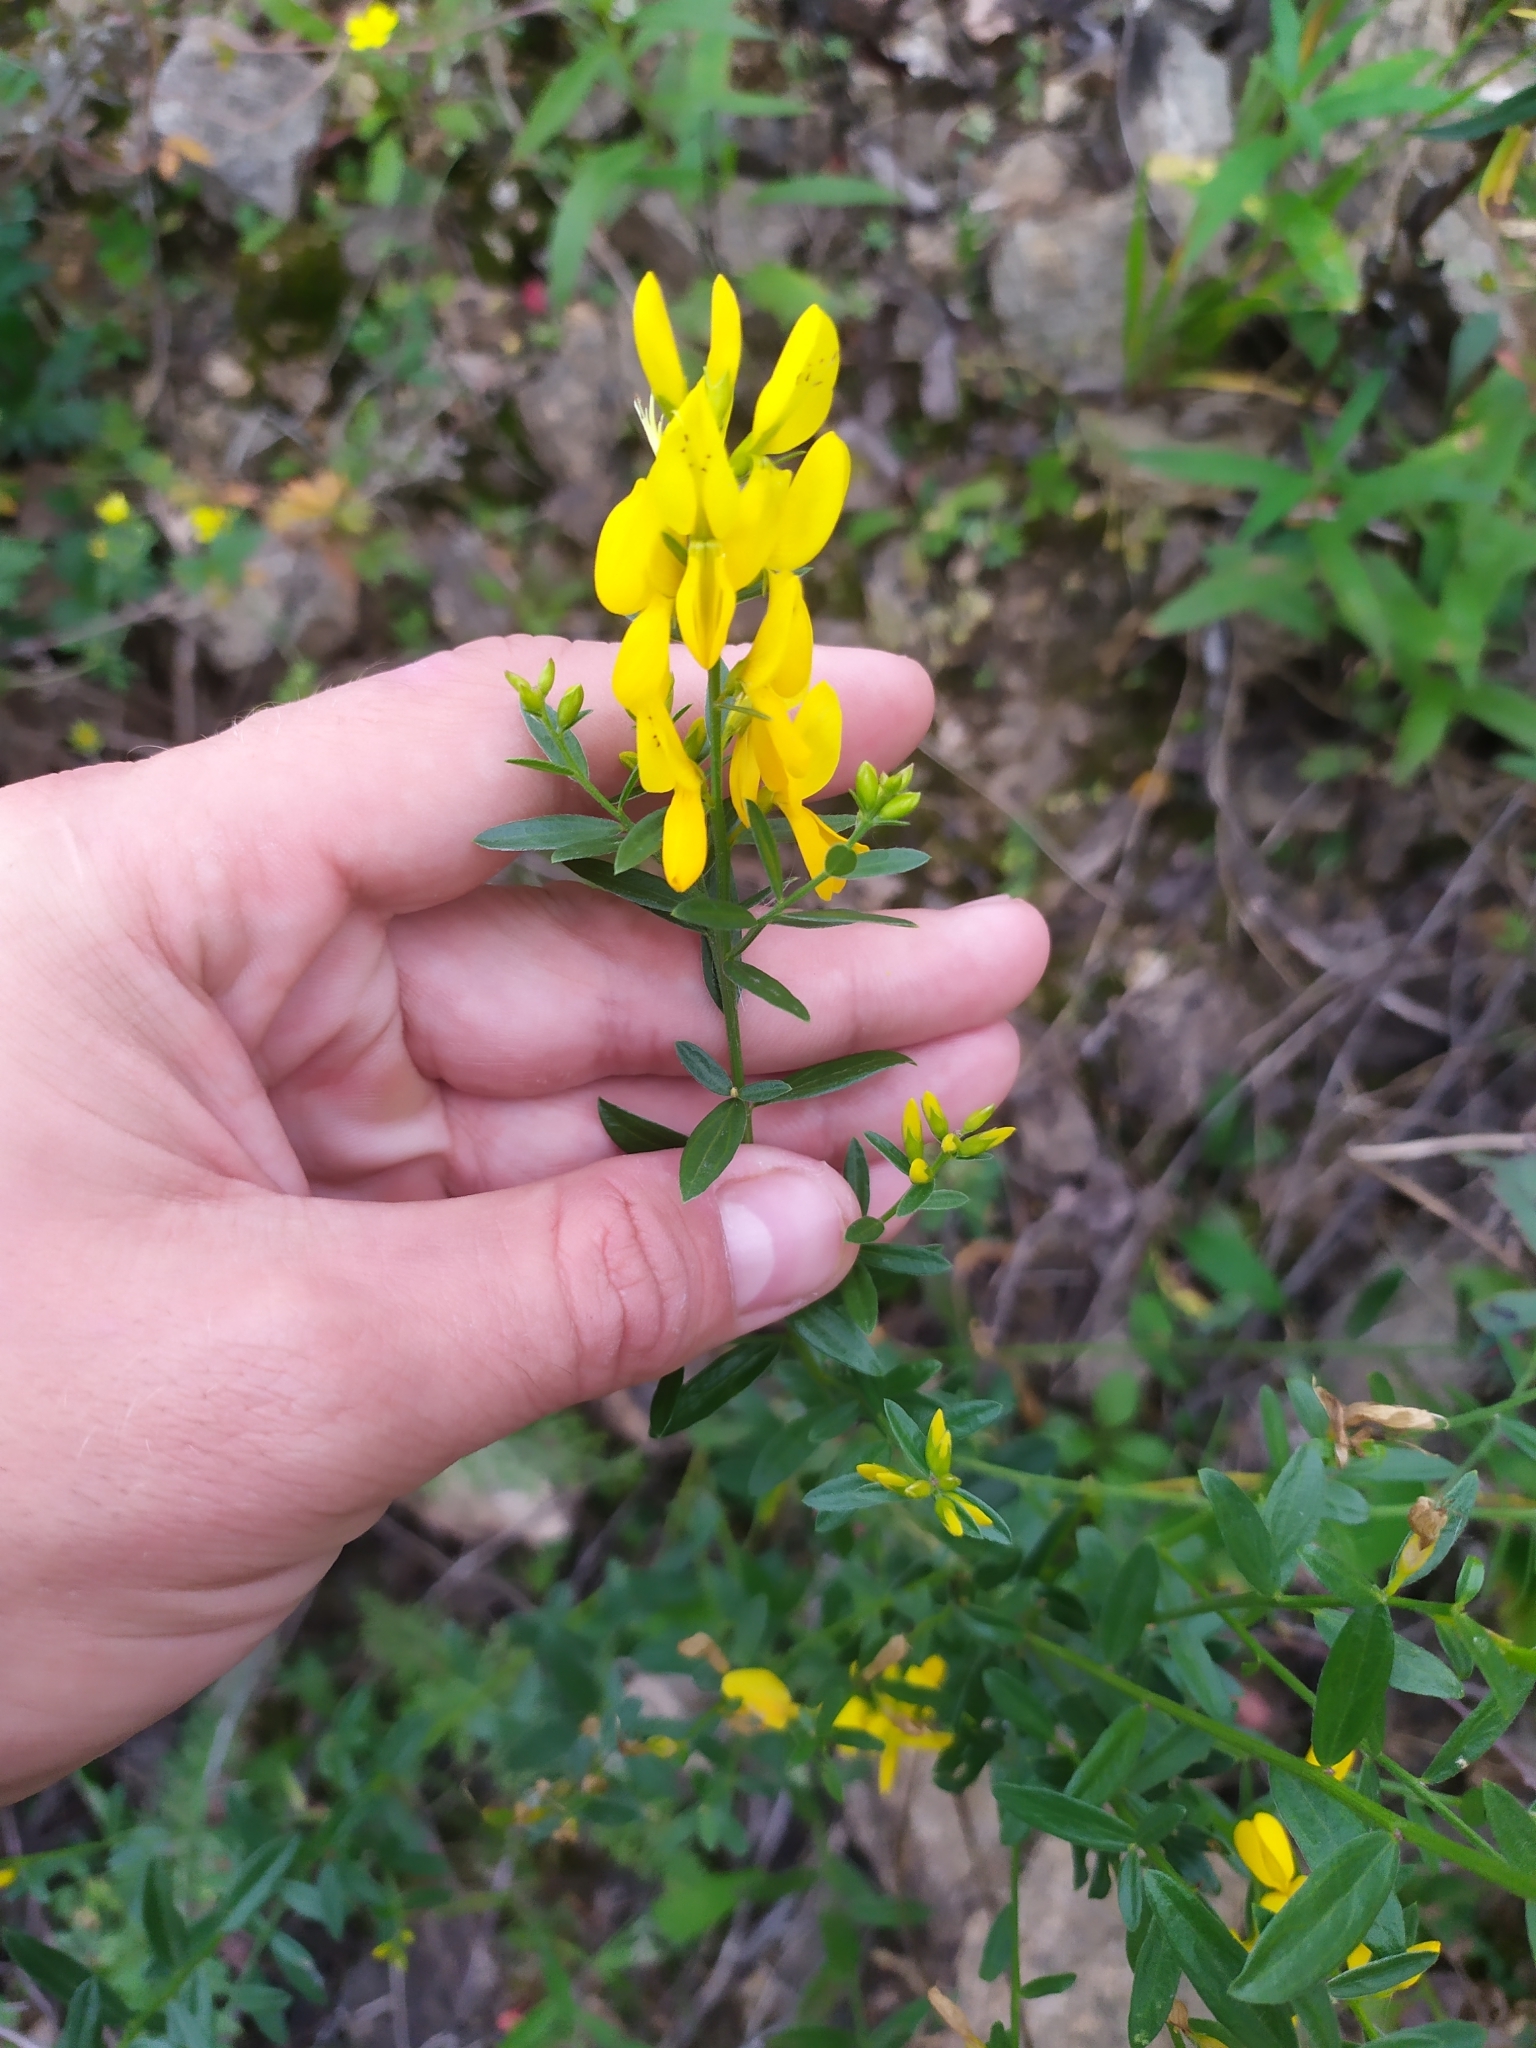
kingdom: Plantae
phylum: Tracheophyta
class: Magnoliopsida
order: Fabales
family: Fabaceae
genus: Genista
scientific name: Genista tinctoria
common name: Dyer's greenweed
